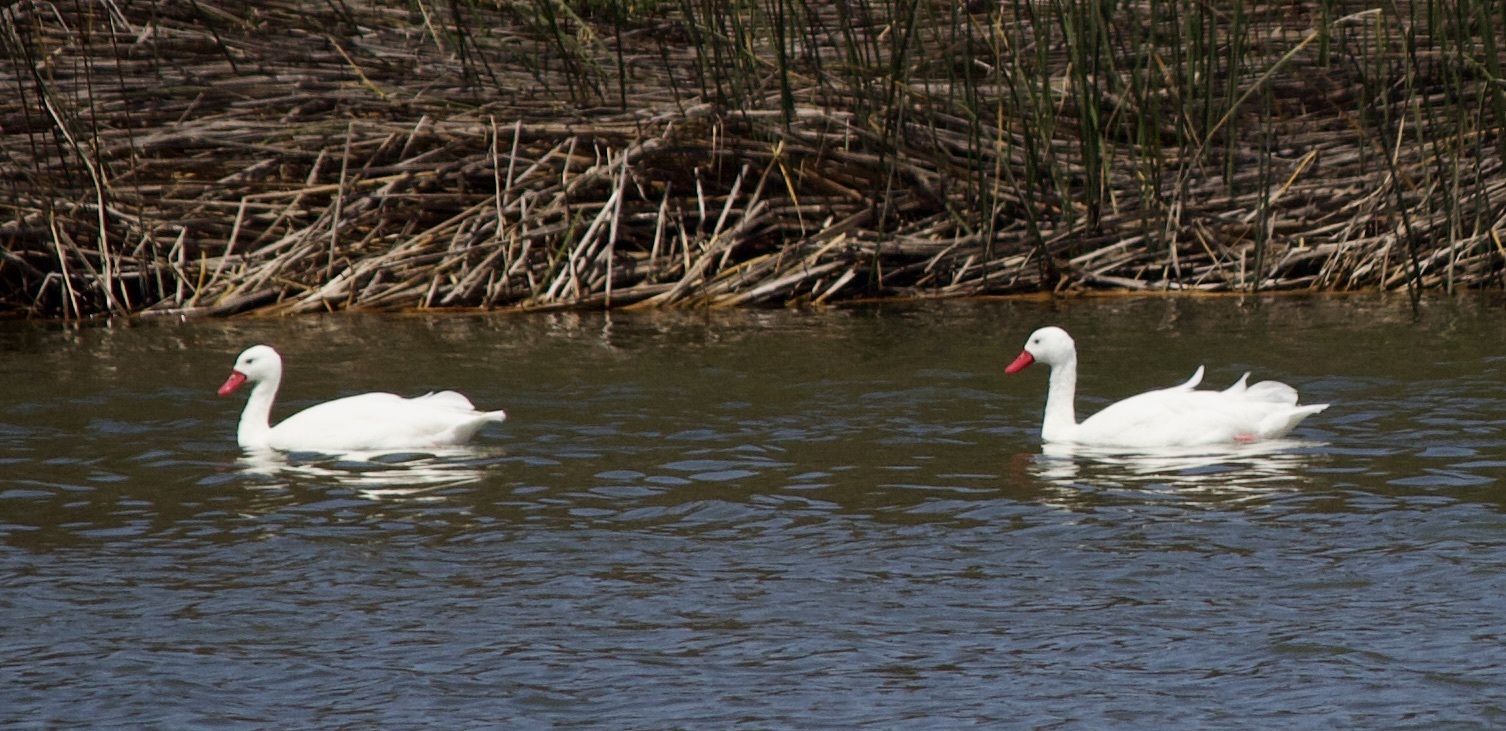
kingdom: Animalia
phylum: Chordata
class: Aves
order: Anseriformes
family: Anatidae
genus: Coscoroba
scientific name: Coscoroba coscoroba
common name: Coscoroba swan
